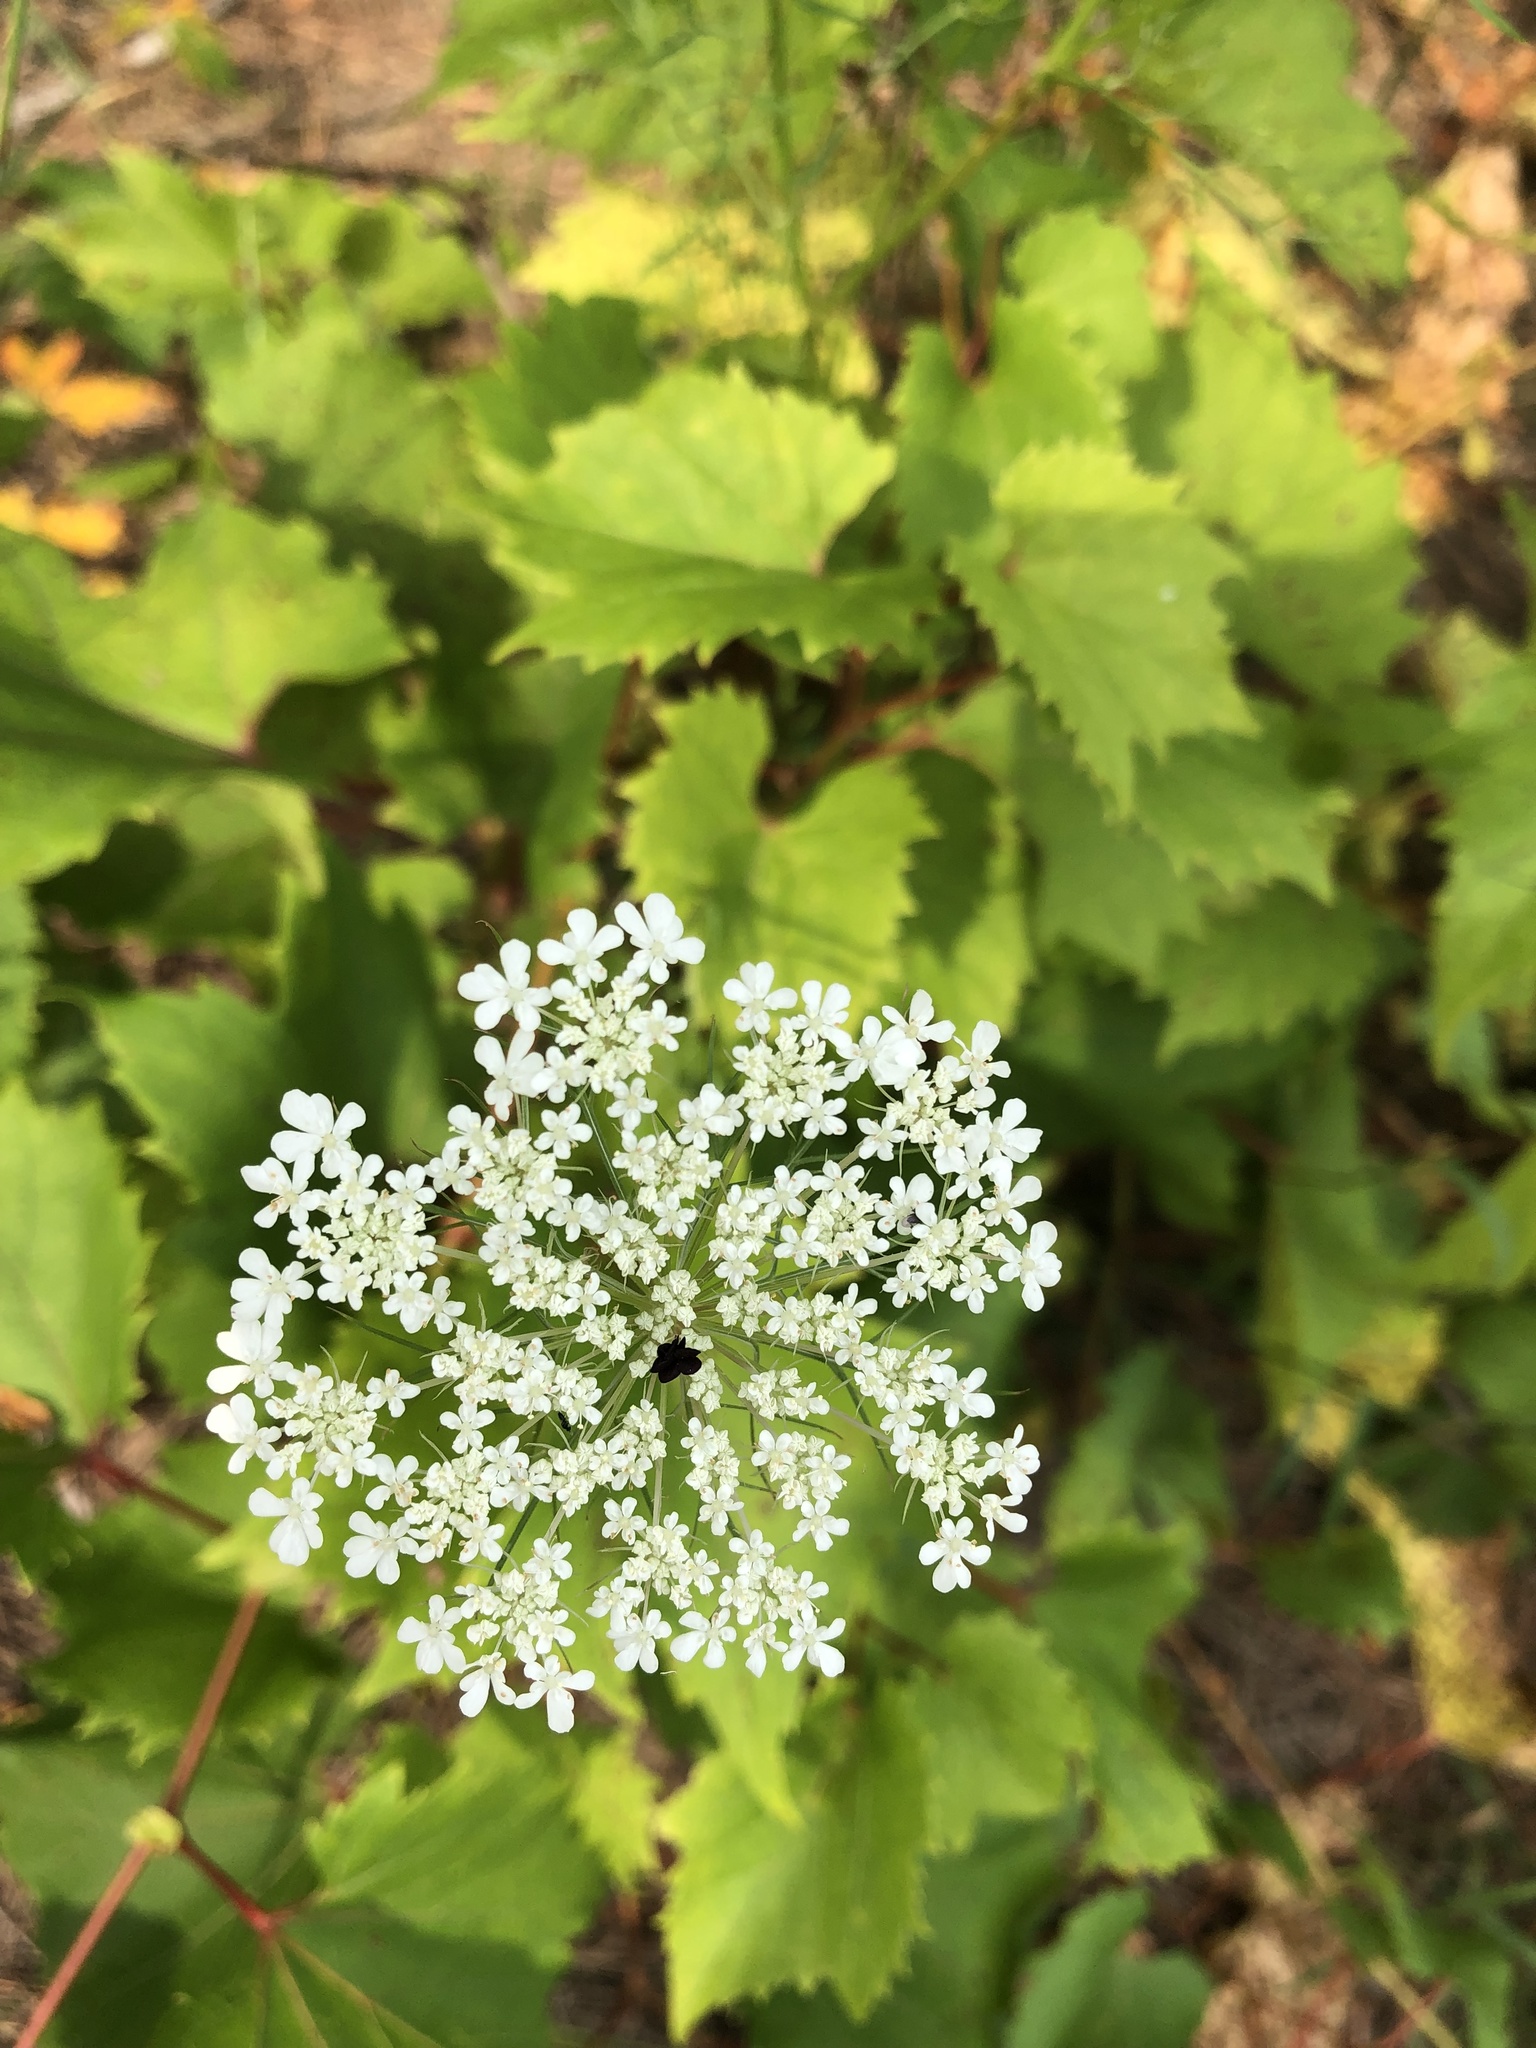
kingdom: Plantae
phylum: Tracheophyta
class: Magnoliopsida
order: Apiales
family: Apiaceae
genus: Daucus
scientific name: Daucus carota
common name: Wild carrot
